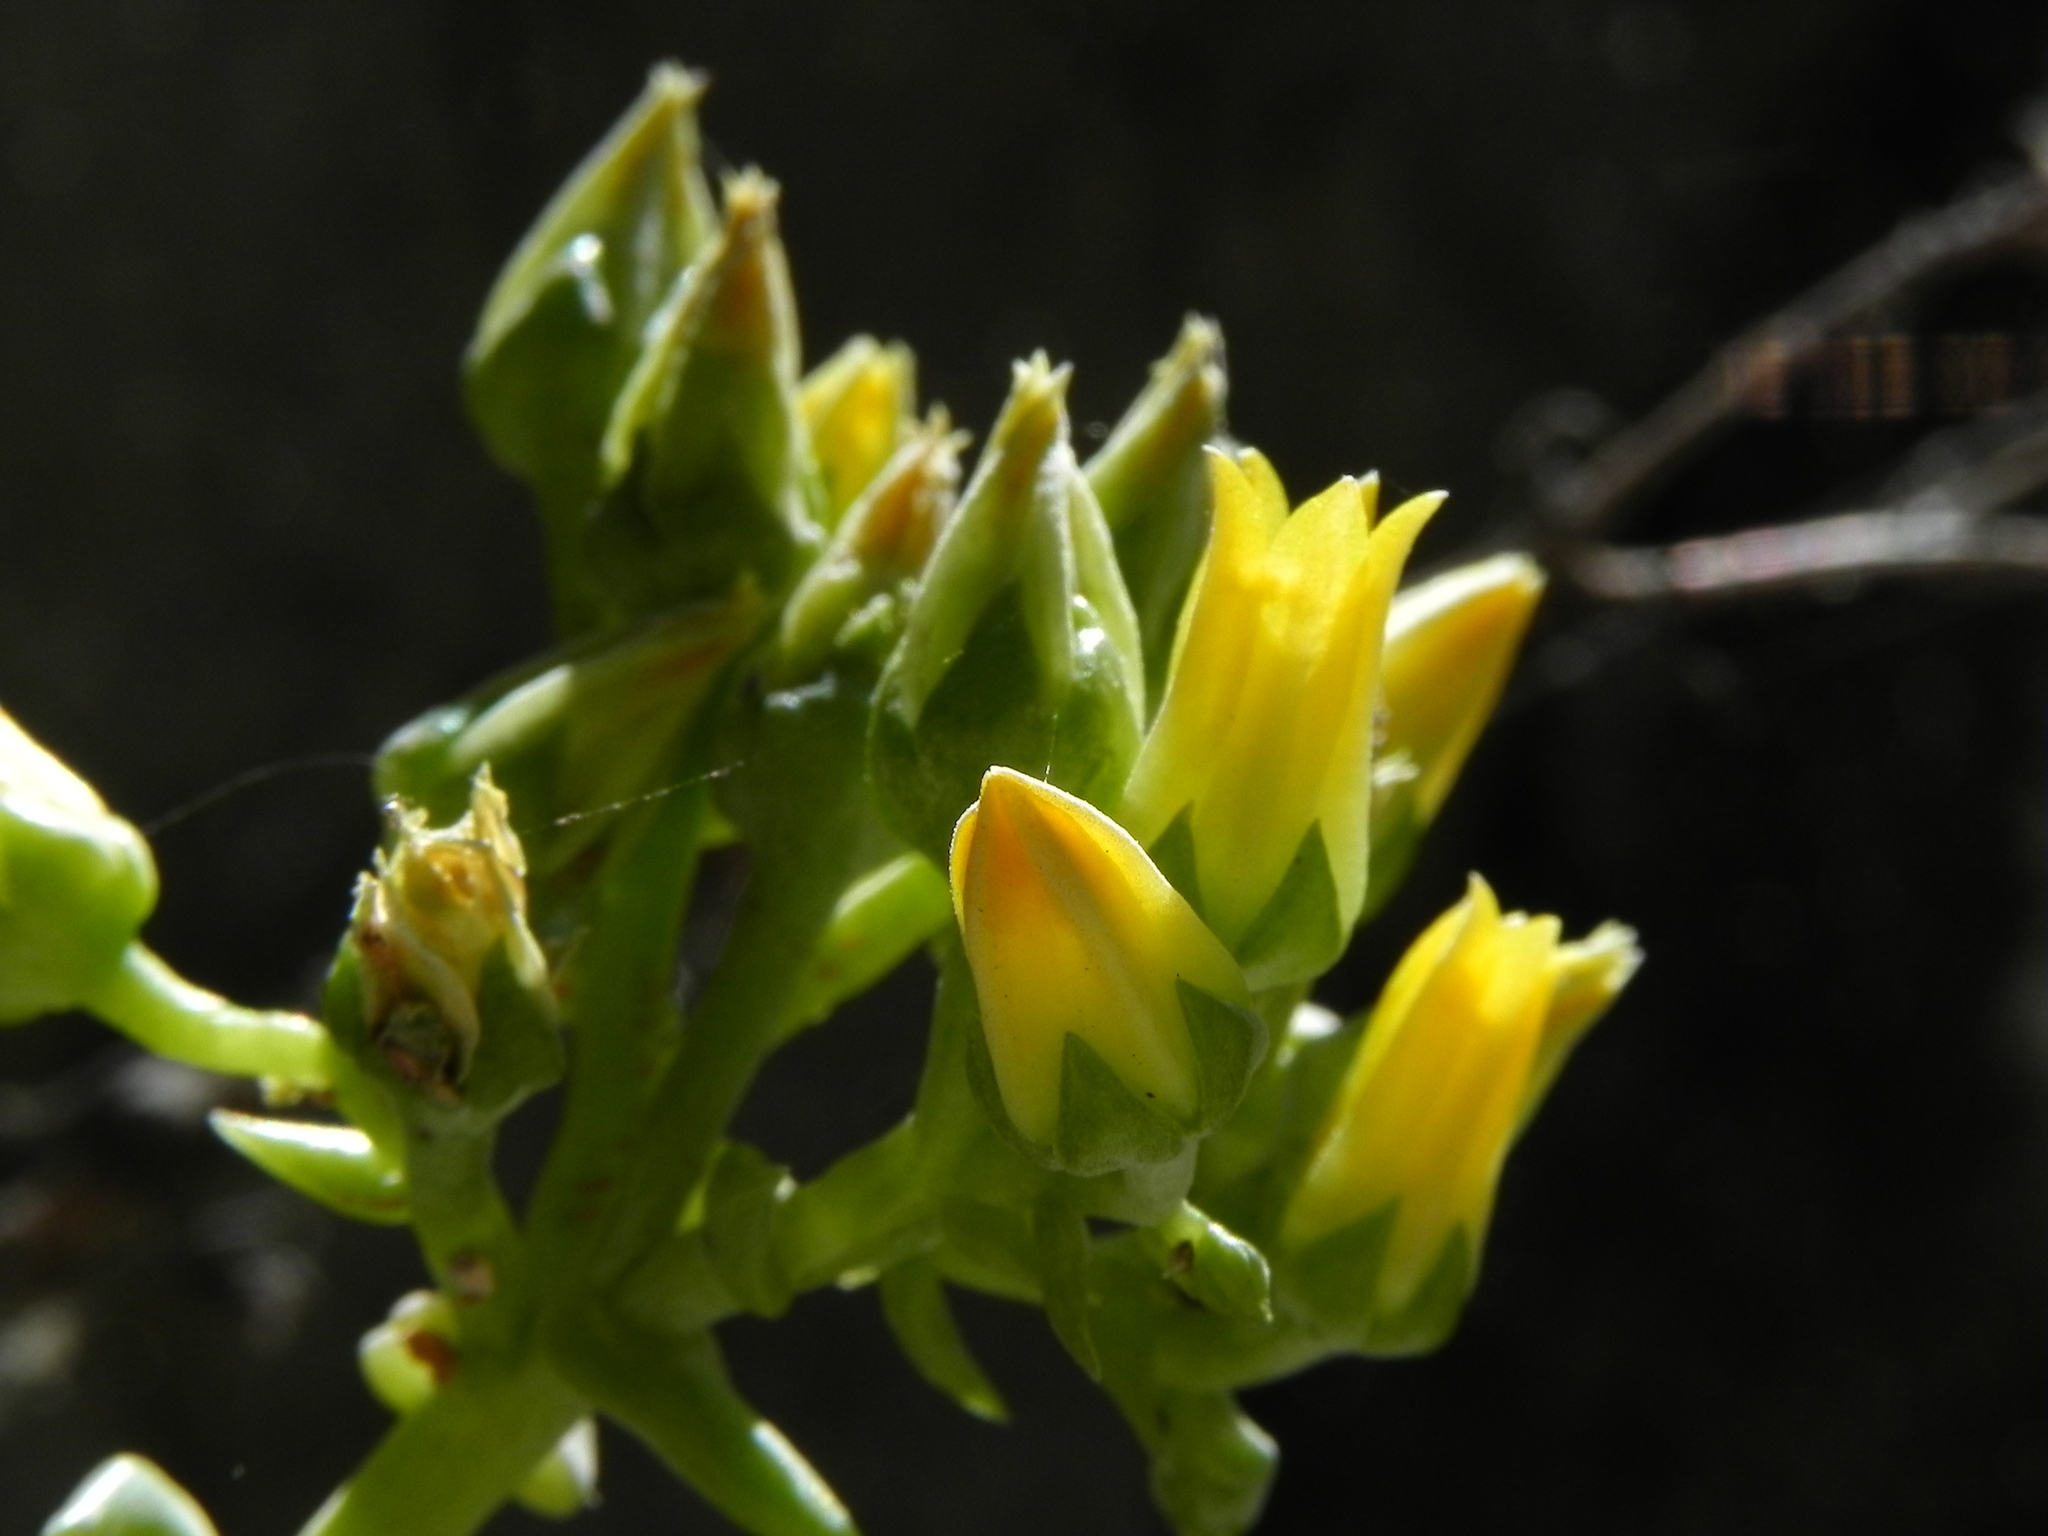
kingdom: Plantae
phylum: Tracheophyta
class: Magnoliopsida
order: Saxifragales
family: Crassulaceae
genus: Dudleya
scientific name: Dudleya cymosa
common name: Canyon dudleya
